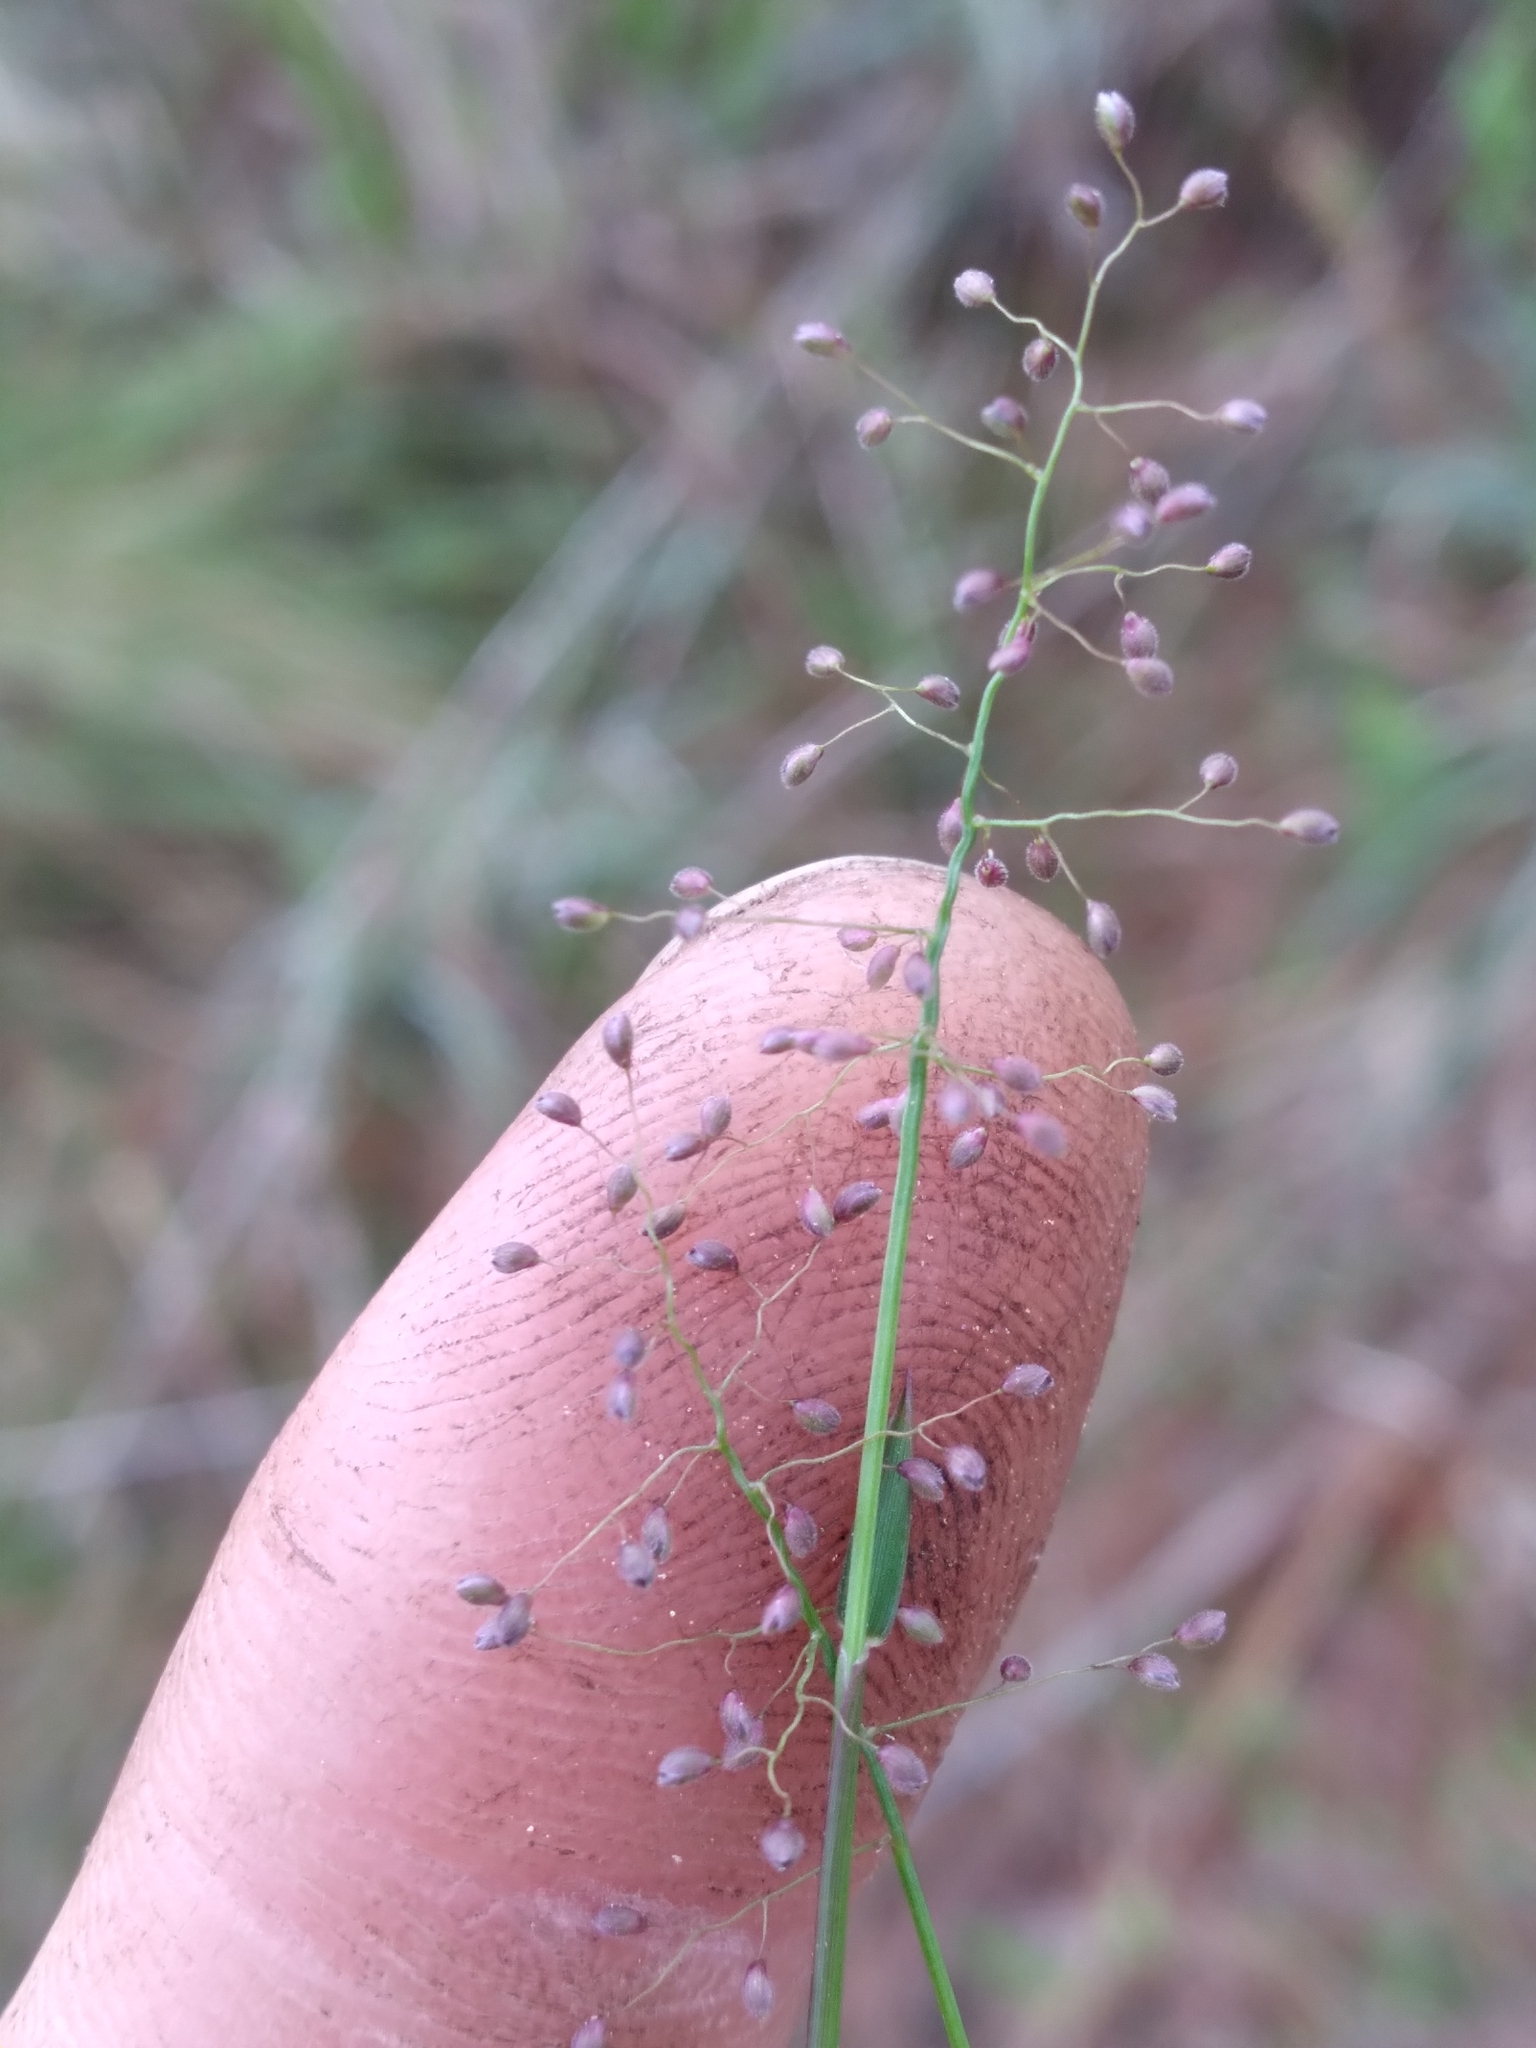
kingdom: Plantae
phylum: Tracheophyta
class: Liliopsida
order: Poales
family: Poaceae
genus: Dichanthelium
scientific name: Dichanthelium ensifolium
